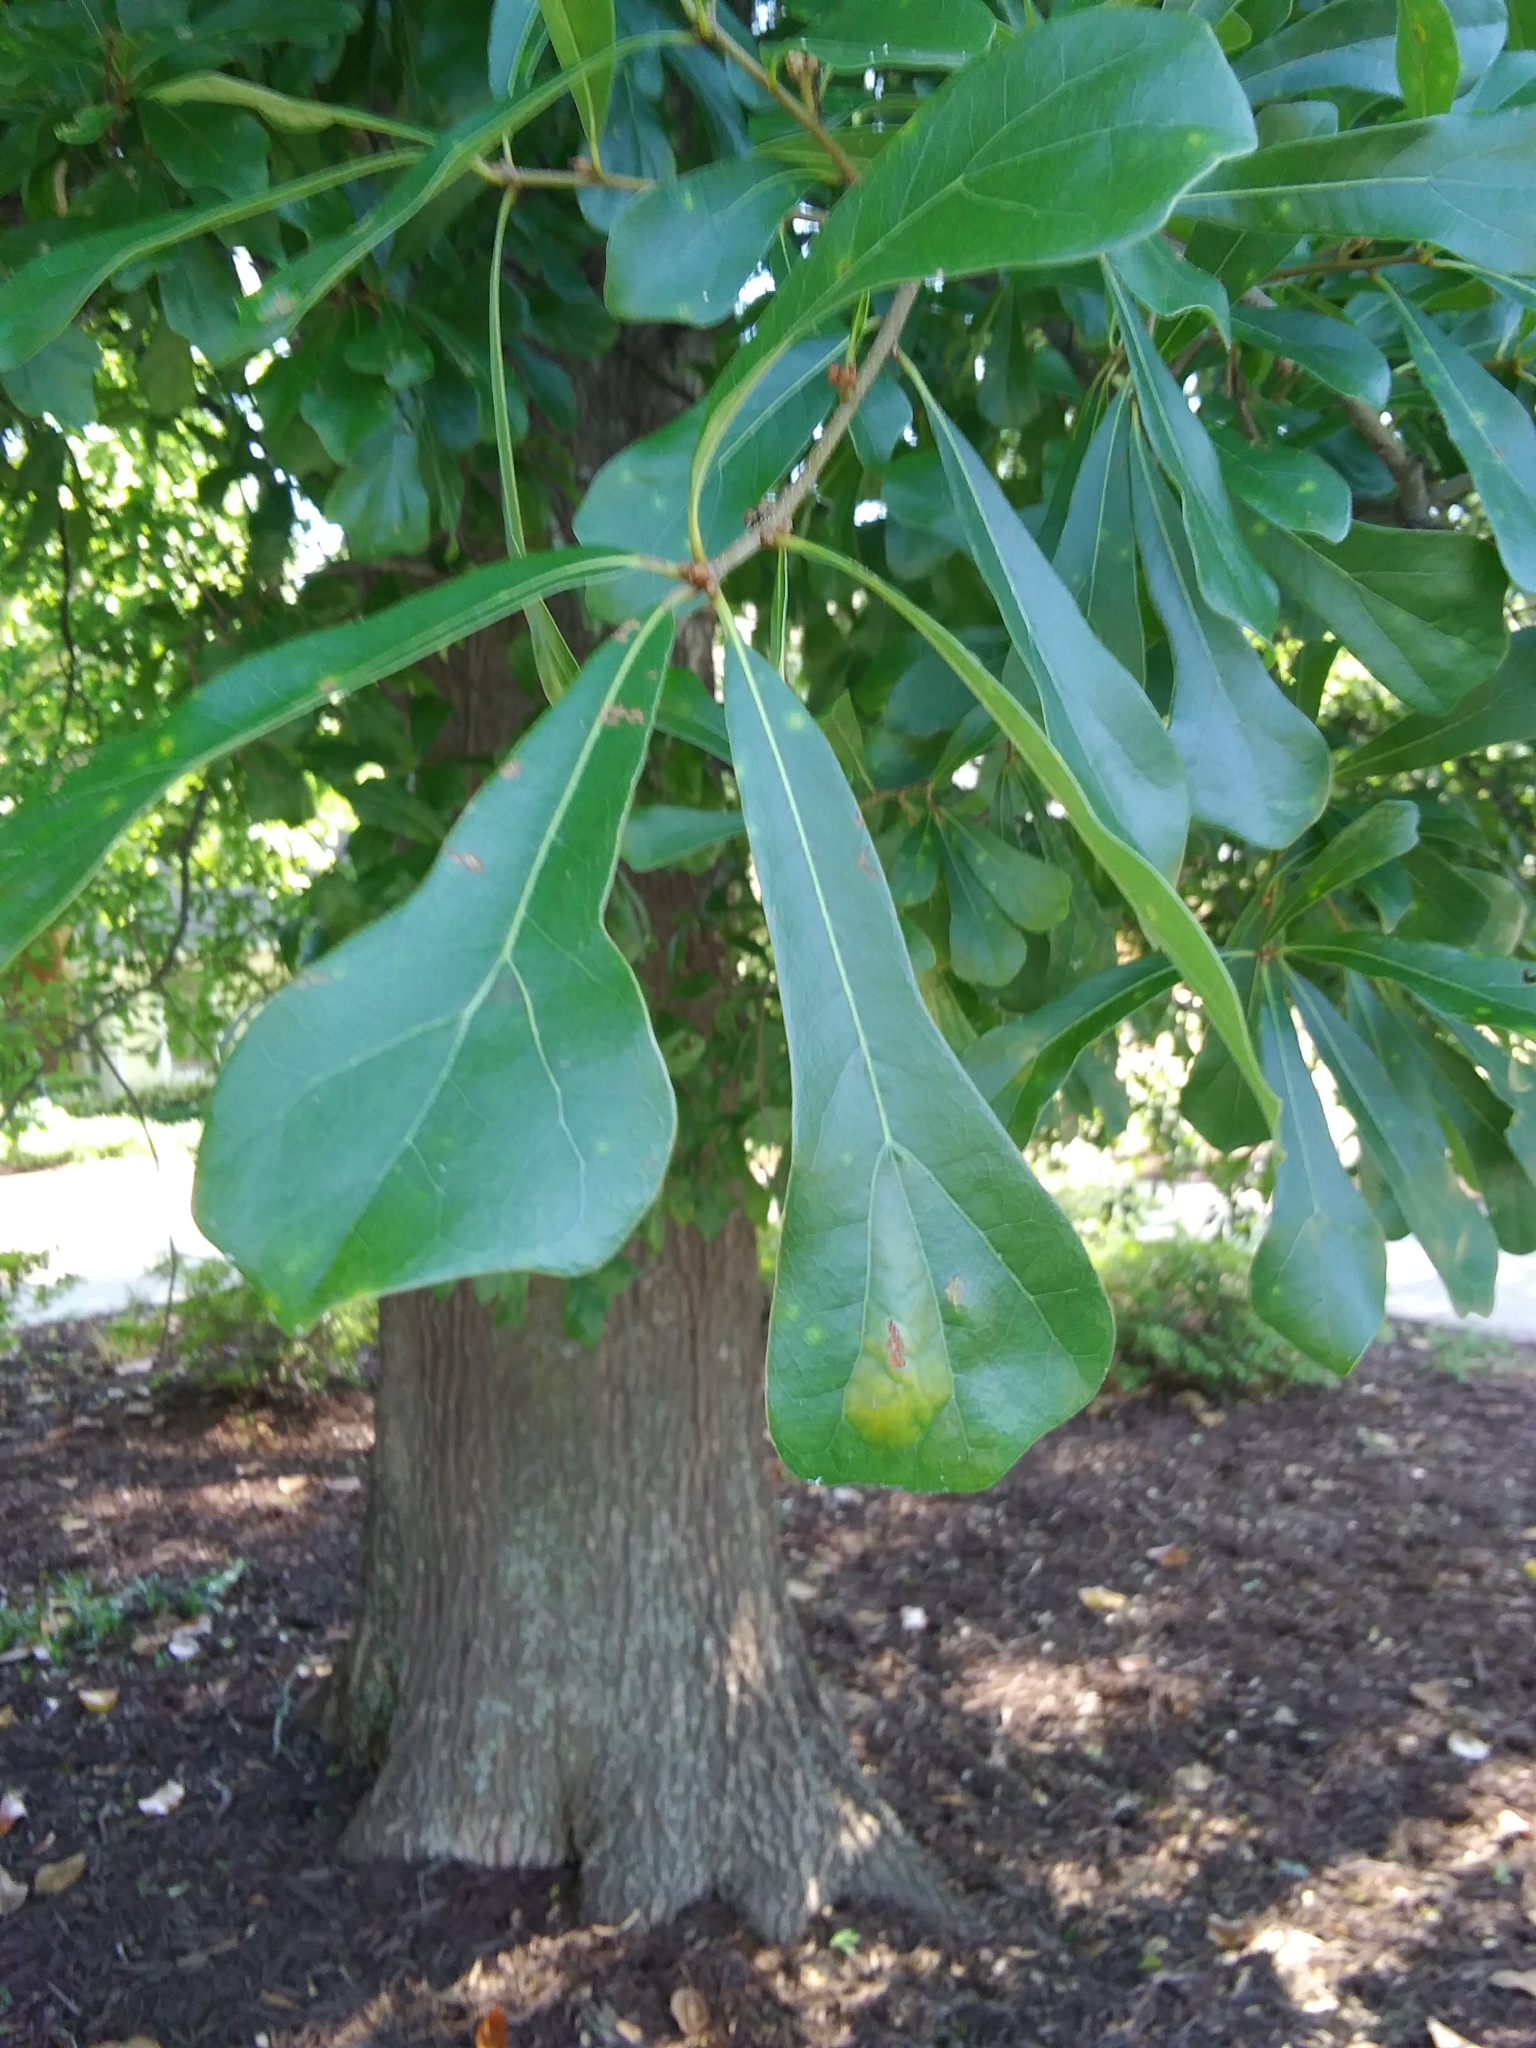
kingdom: Plantae
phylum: Tracheophyta
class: Magnoliopsida
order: Fagales
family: Fagaceae
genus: Quercus
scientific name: Quercus nigra
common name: Water oak
